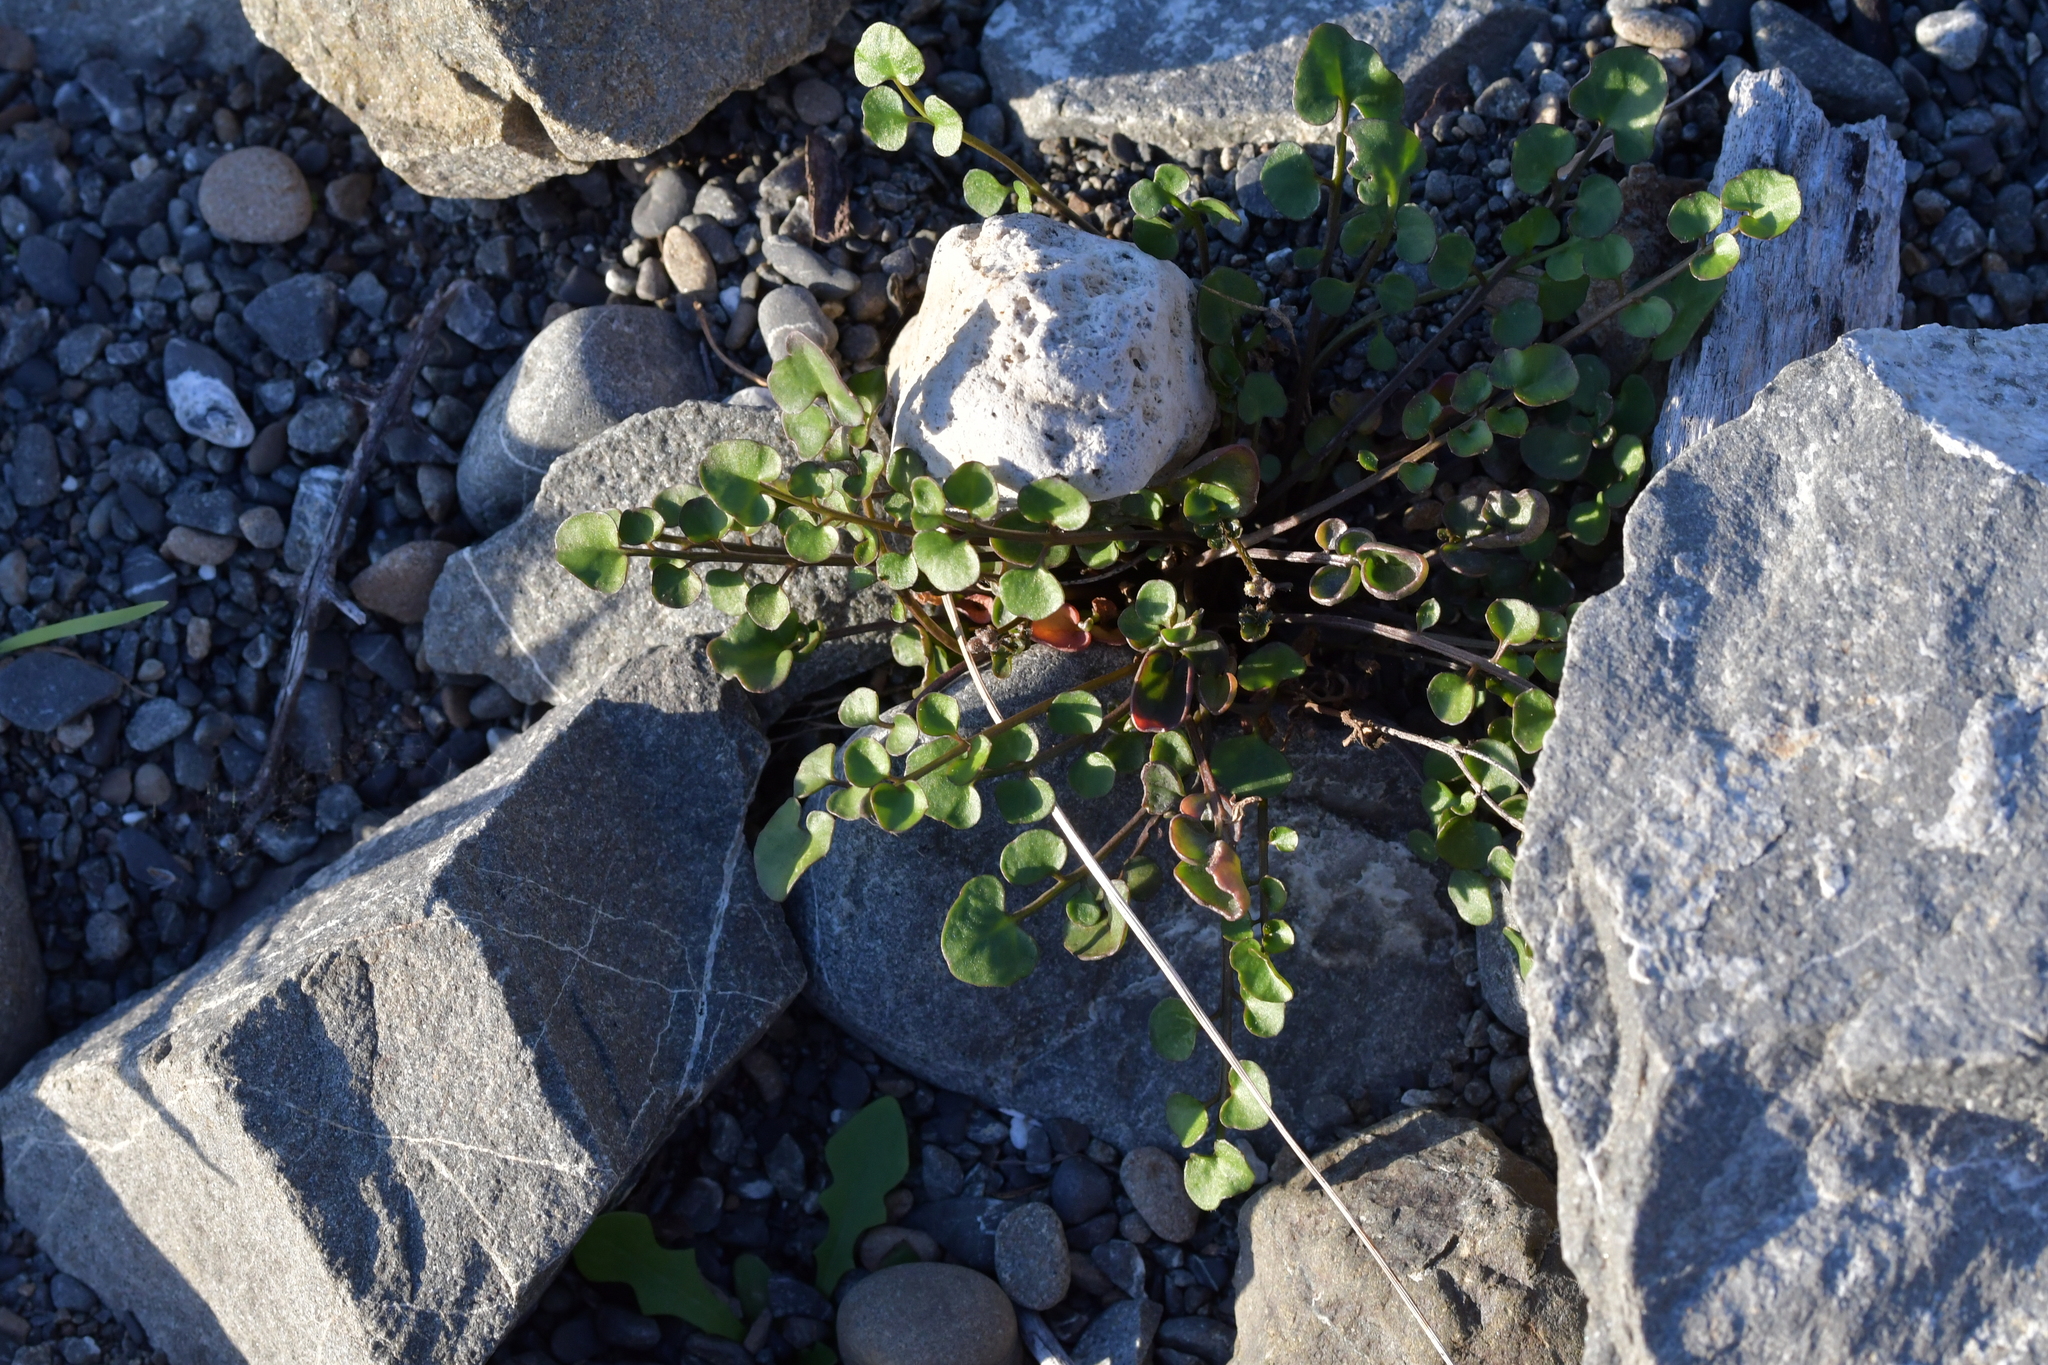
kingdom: Plantae
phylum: Tracheophyta
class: Magnoliopsida
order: Brassicales
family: Brassicaceae
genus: Cardamine
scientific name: Cardamine corymbosa
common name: New zealand bitter-cress
